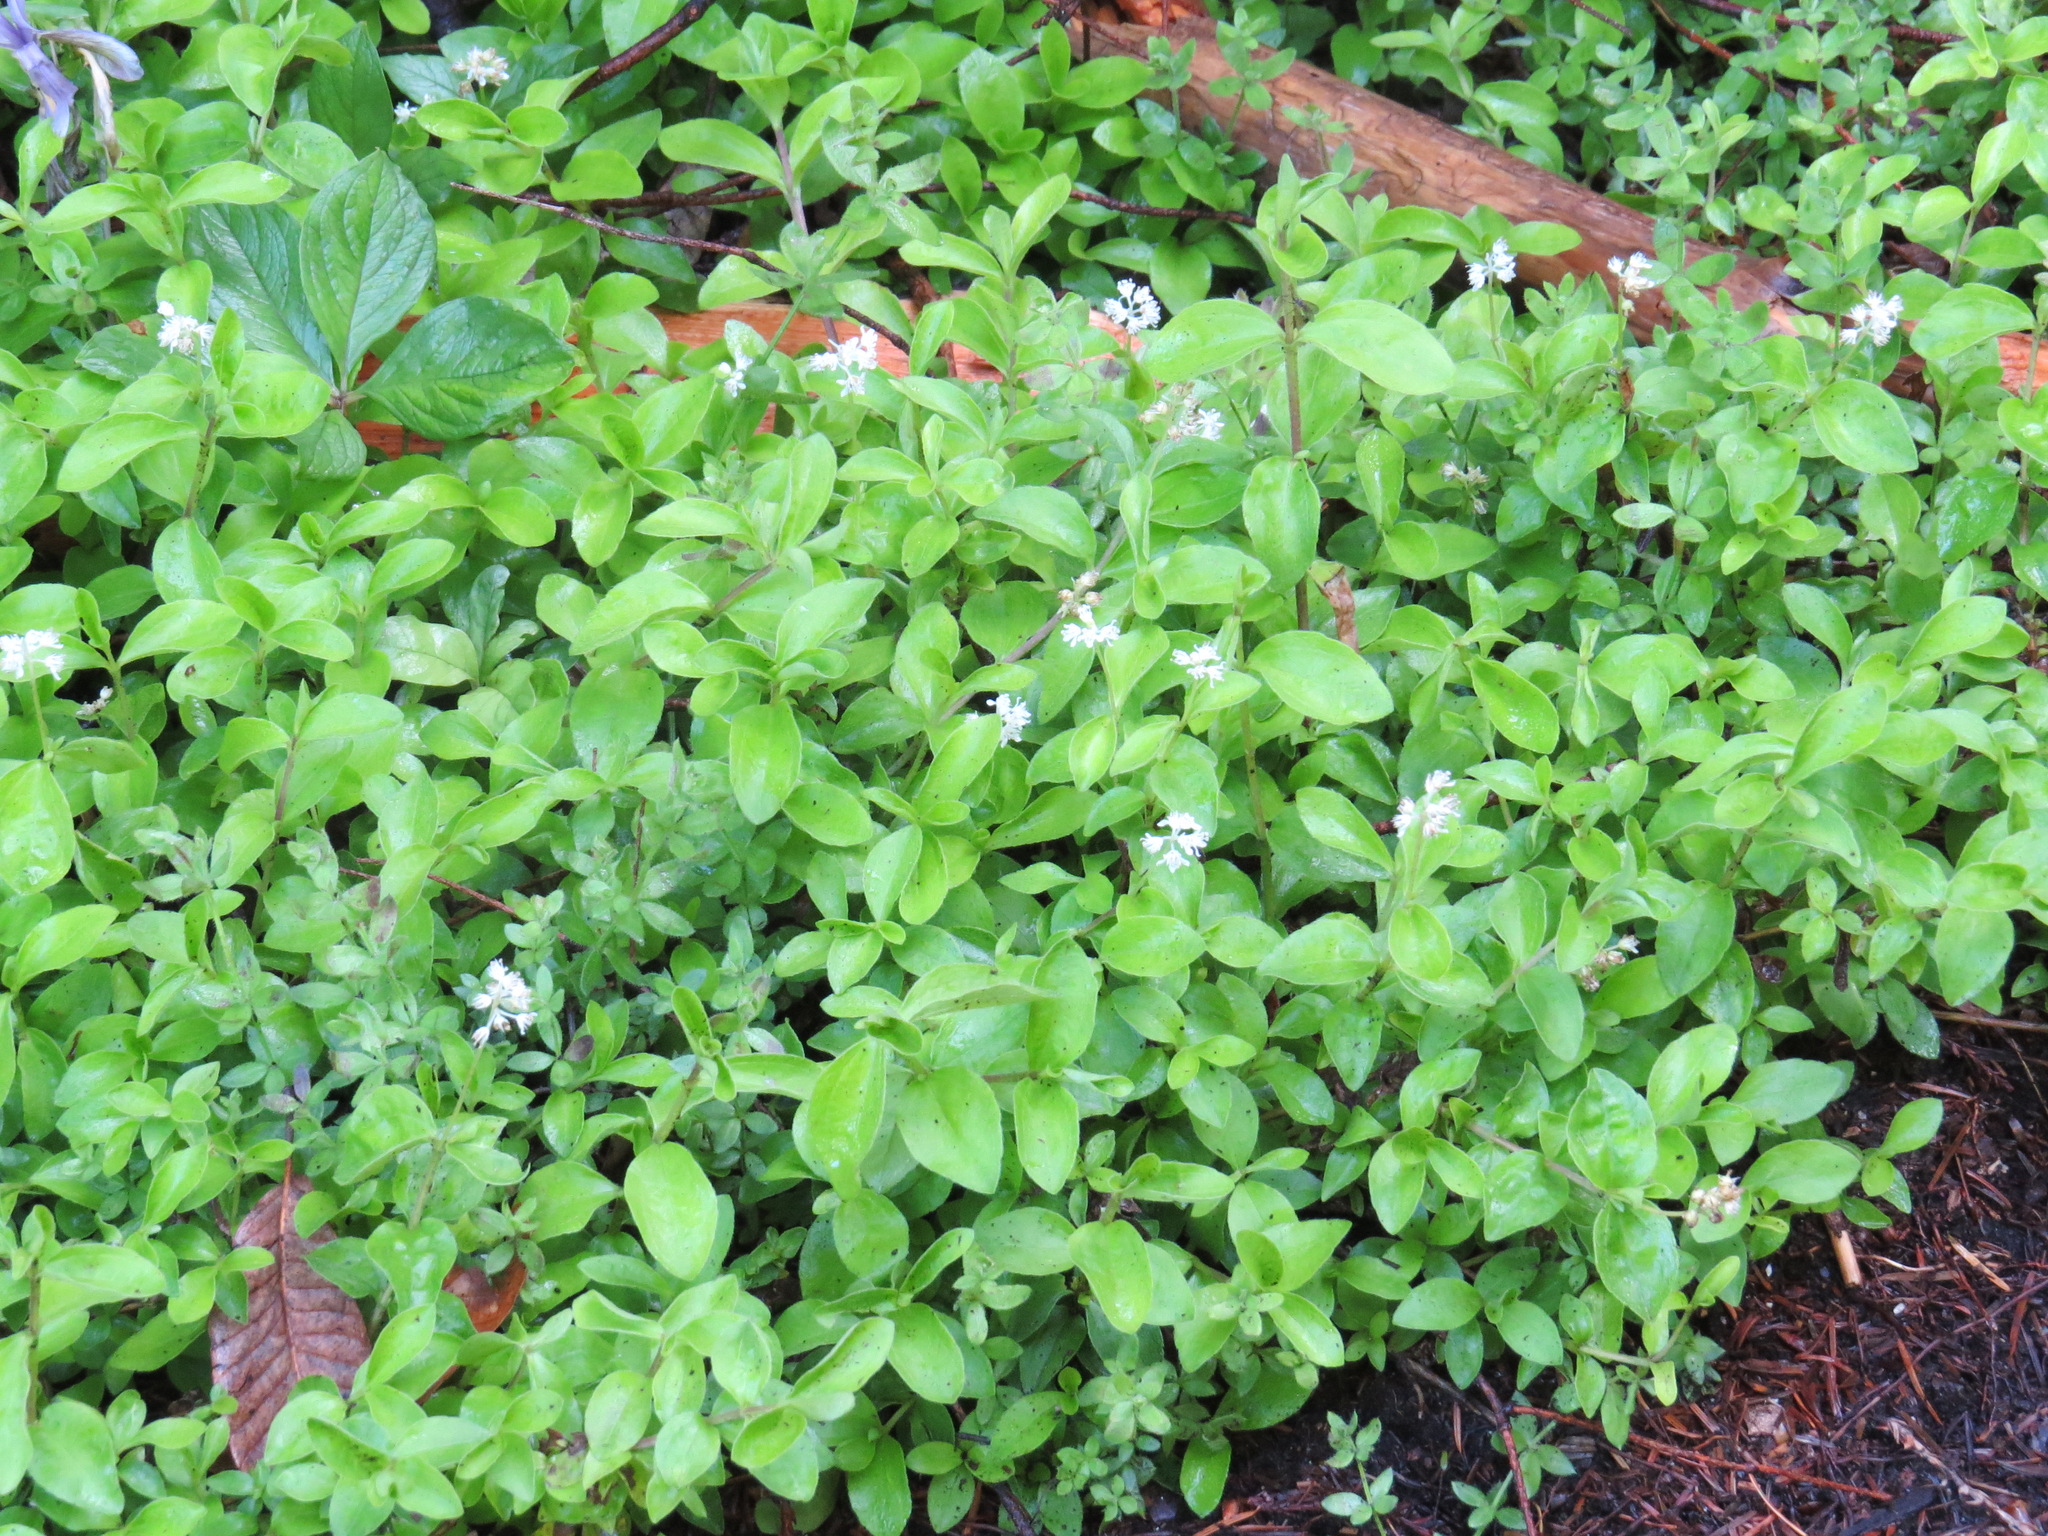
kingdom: Plantae
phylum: Tracheophyta
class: Magnoliopsida
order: Cornales
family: Hydrangeaceae
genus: Whipplea
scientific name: Whipplea modesta
